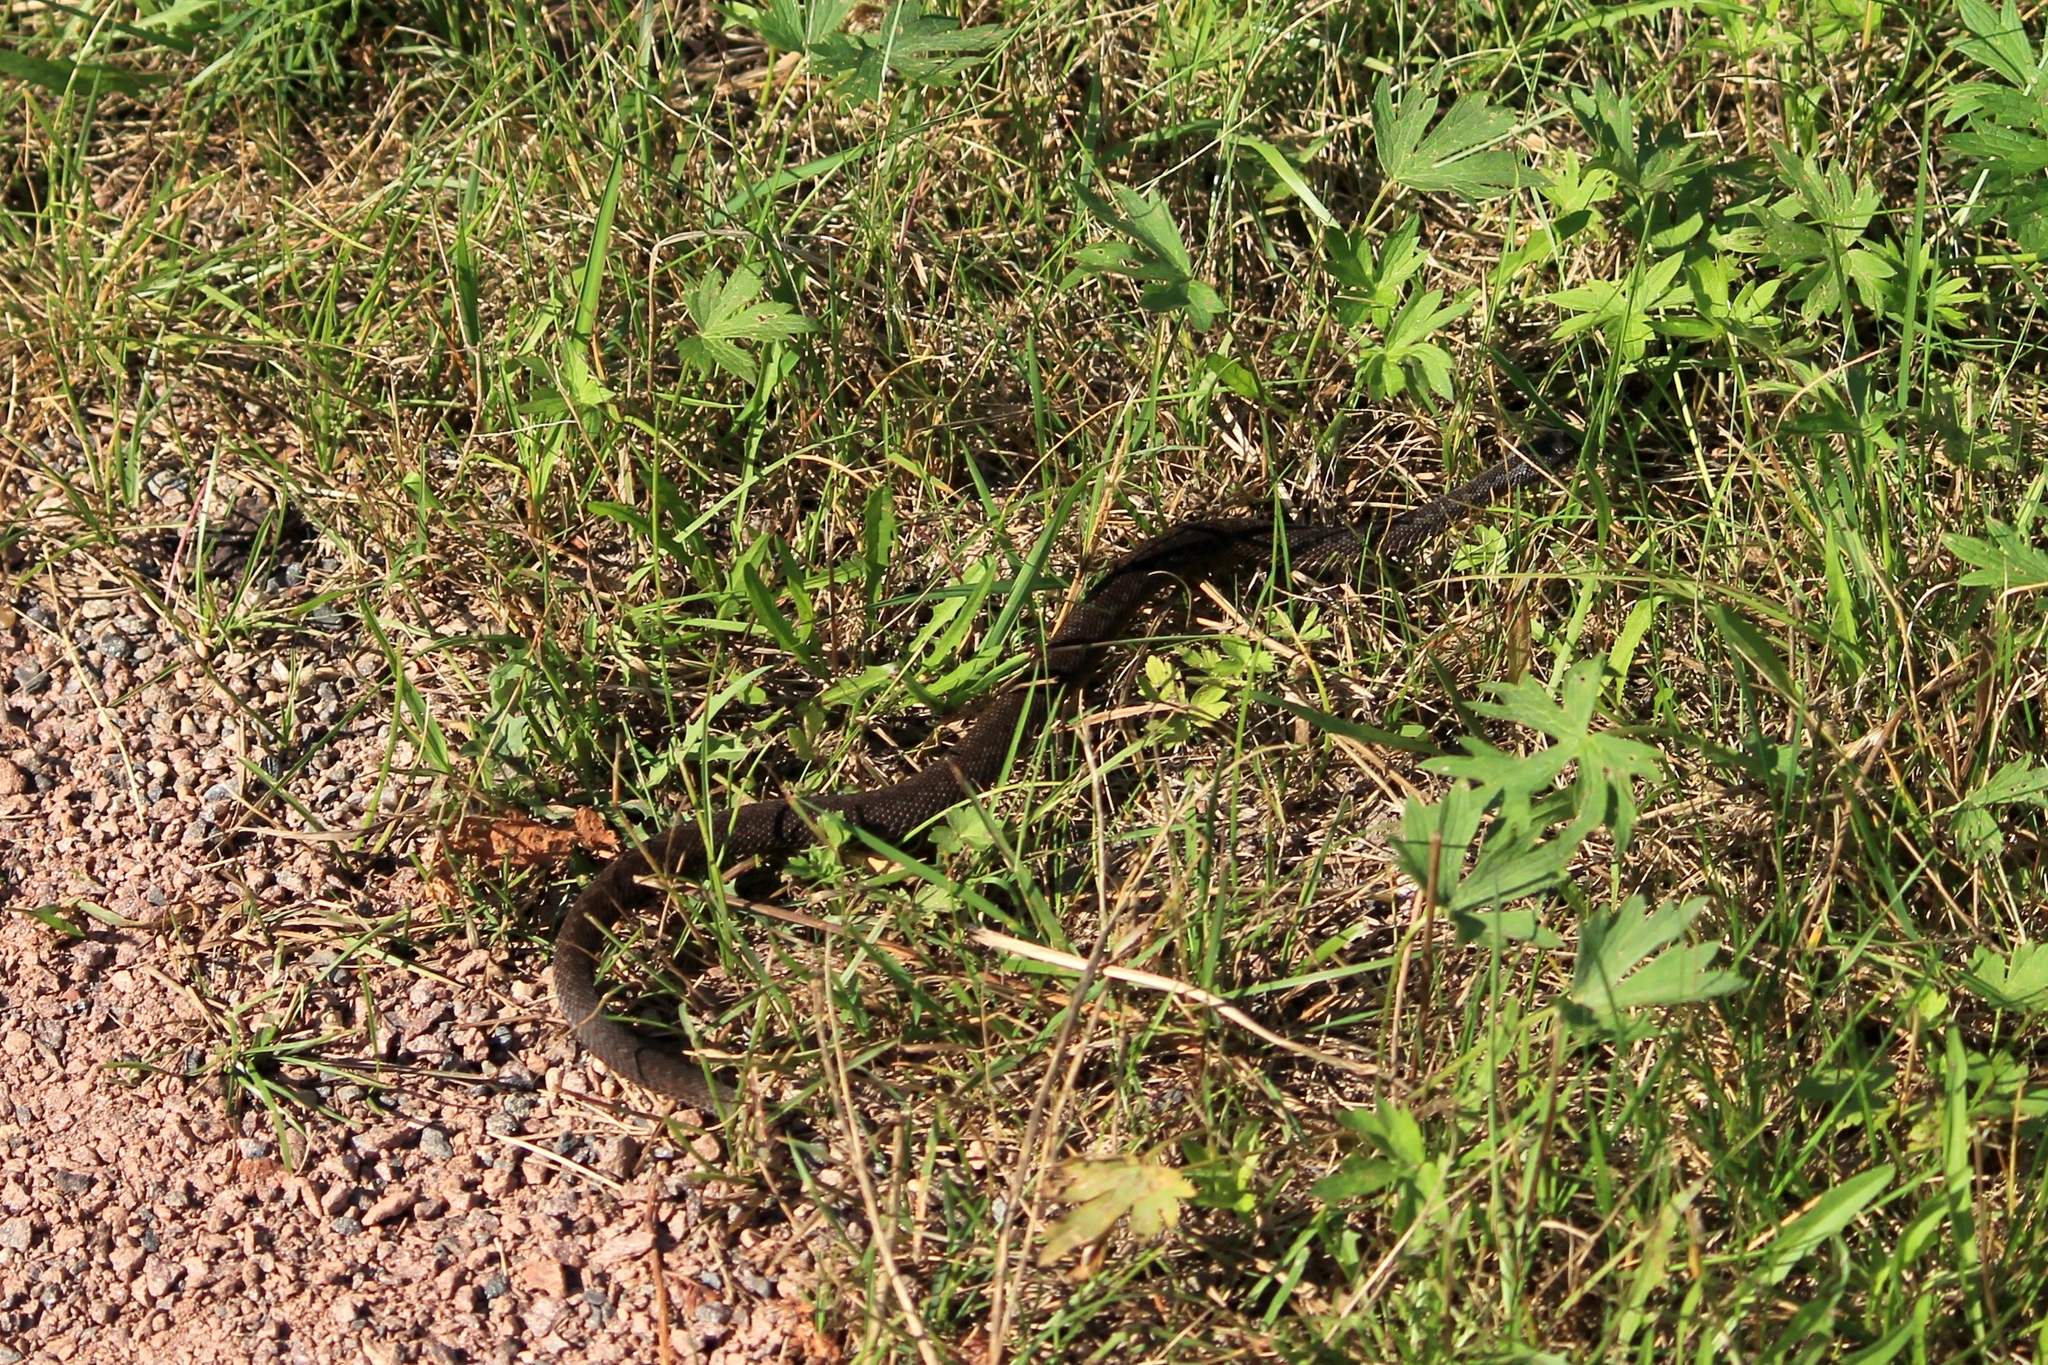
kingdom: Animalia
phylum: Chordata
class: Squamata
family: Viperidae
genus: Vipera
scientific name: Vipera berus
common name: Adder
